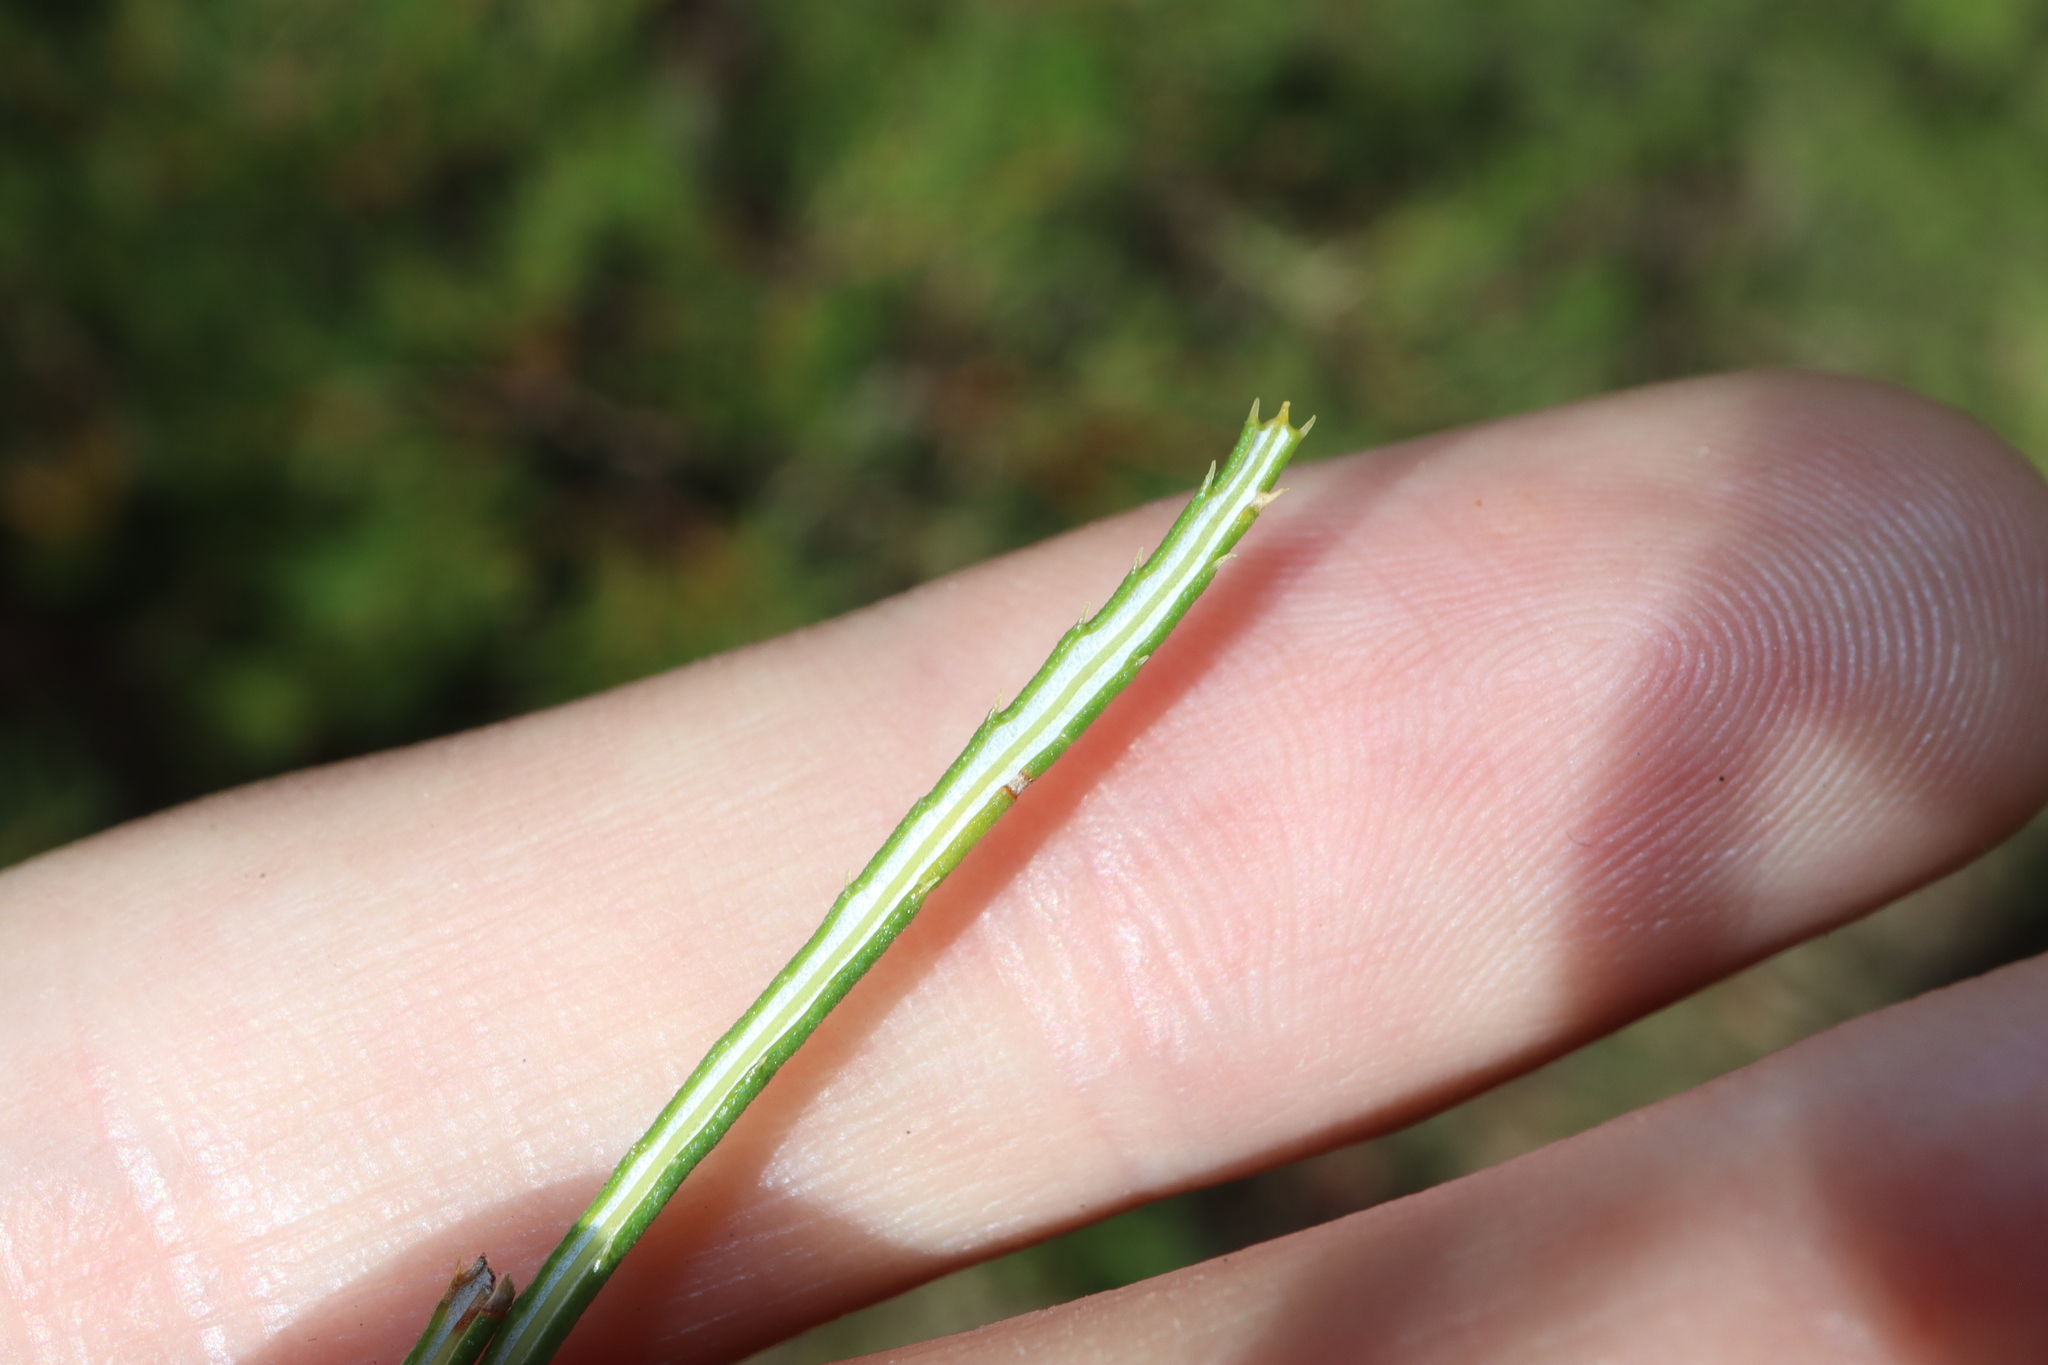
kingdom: Plantae
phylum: Tracheophyta
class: Magnoliopsida
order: Proteales
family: Proteaceae
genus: Banksia
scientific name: Banksia spinulosa
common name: Hairpin banksia
